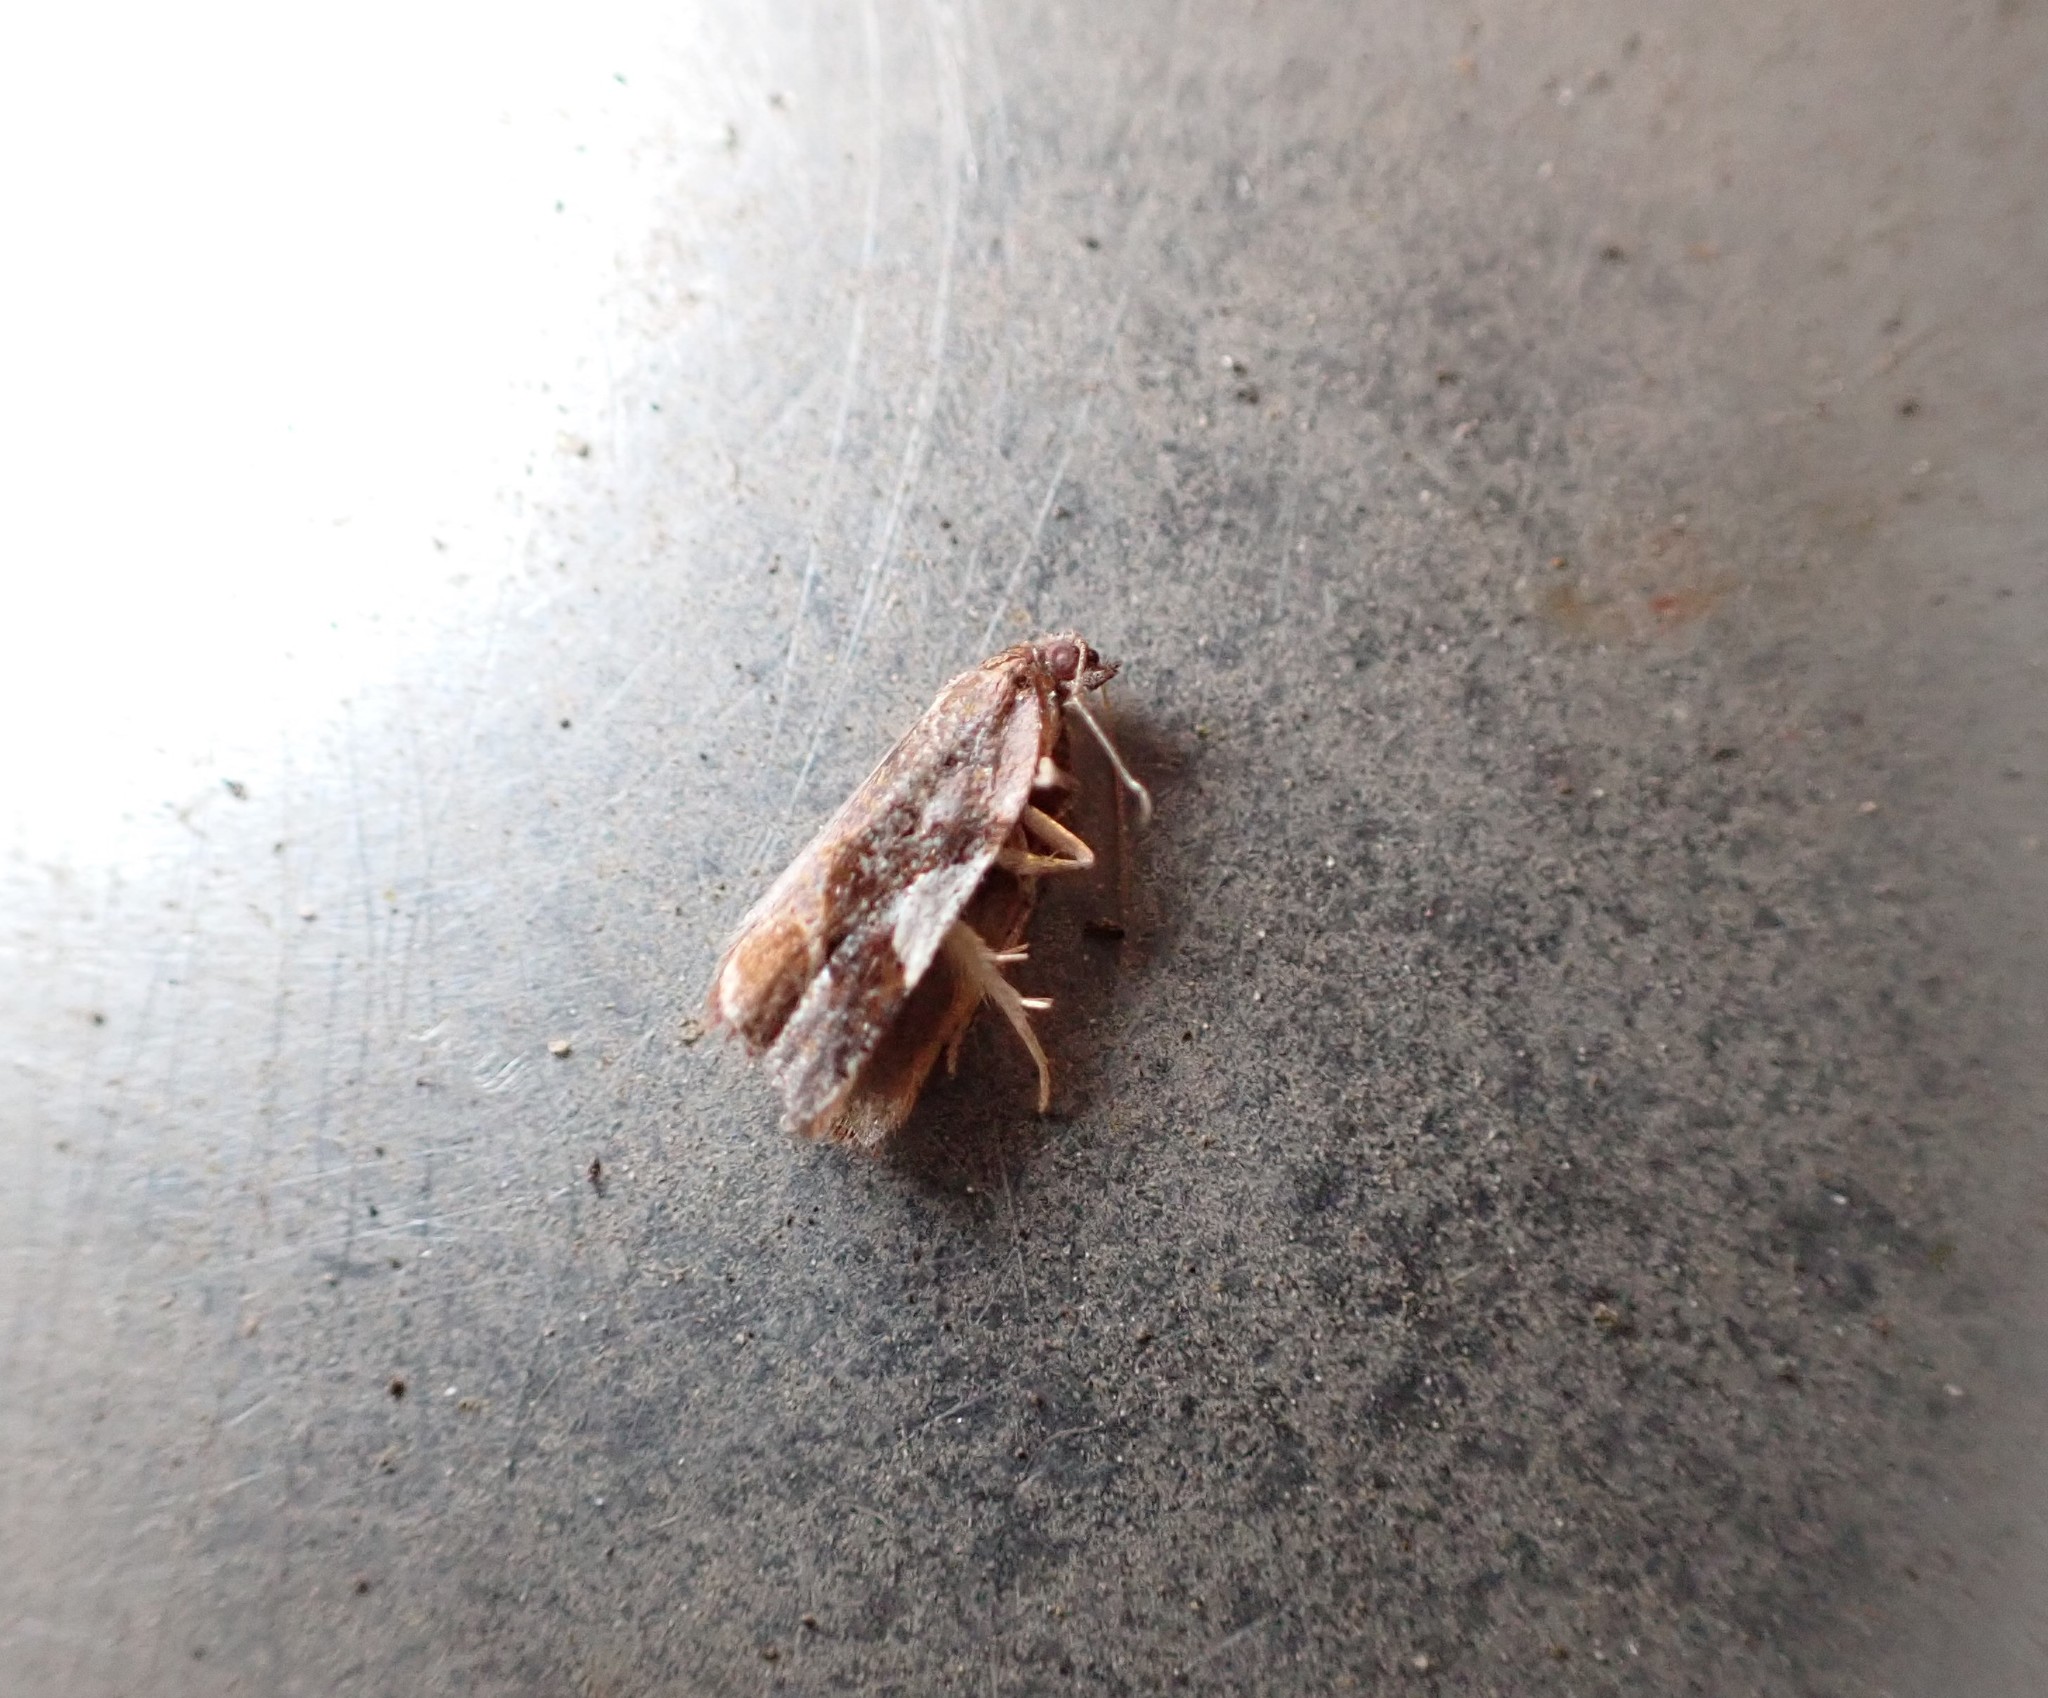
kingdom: Animalia
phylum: Arthropoda
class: Insecta
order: Lepidoptera
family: Tortricidae
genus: Pyrgotis
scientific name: Pyrgotis plagiatana
